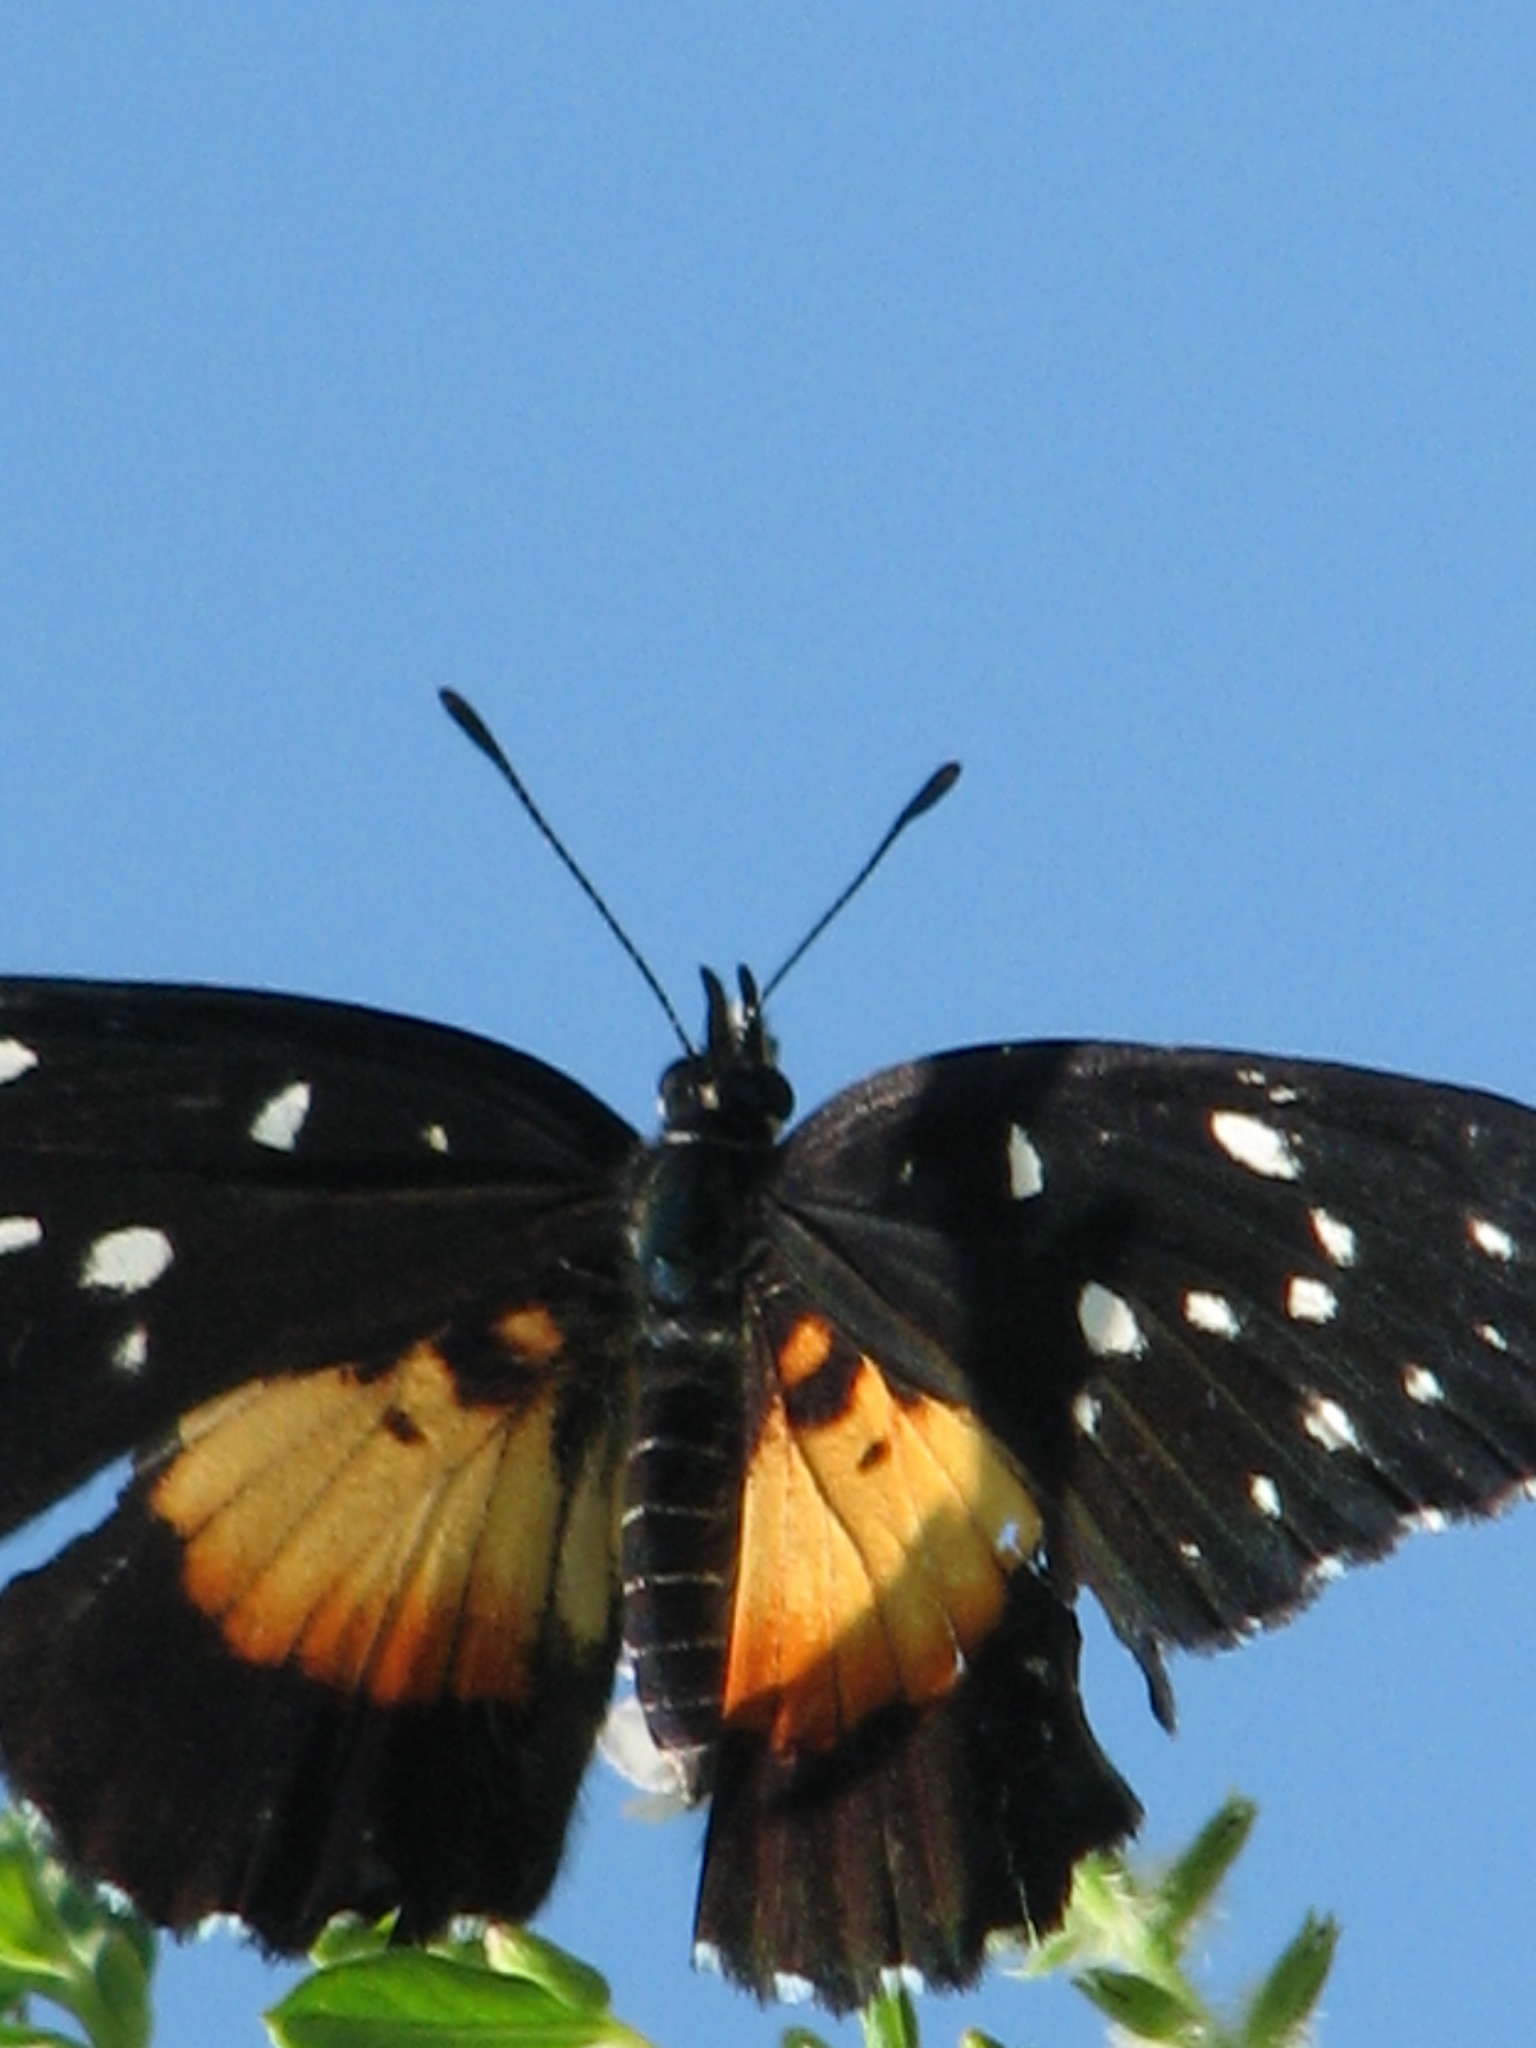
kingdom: Animalia
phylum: Arthropoda
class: Insecta
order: Lepidoptera
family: Nymphalidae
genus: Chlosyne
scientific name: Chlosyne rosita
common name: Rosita patch
